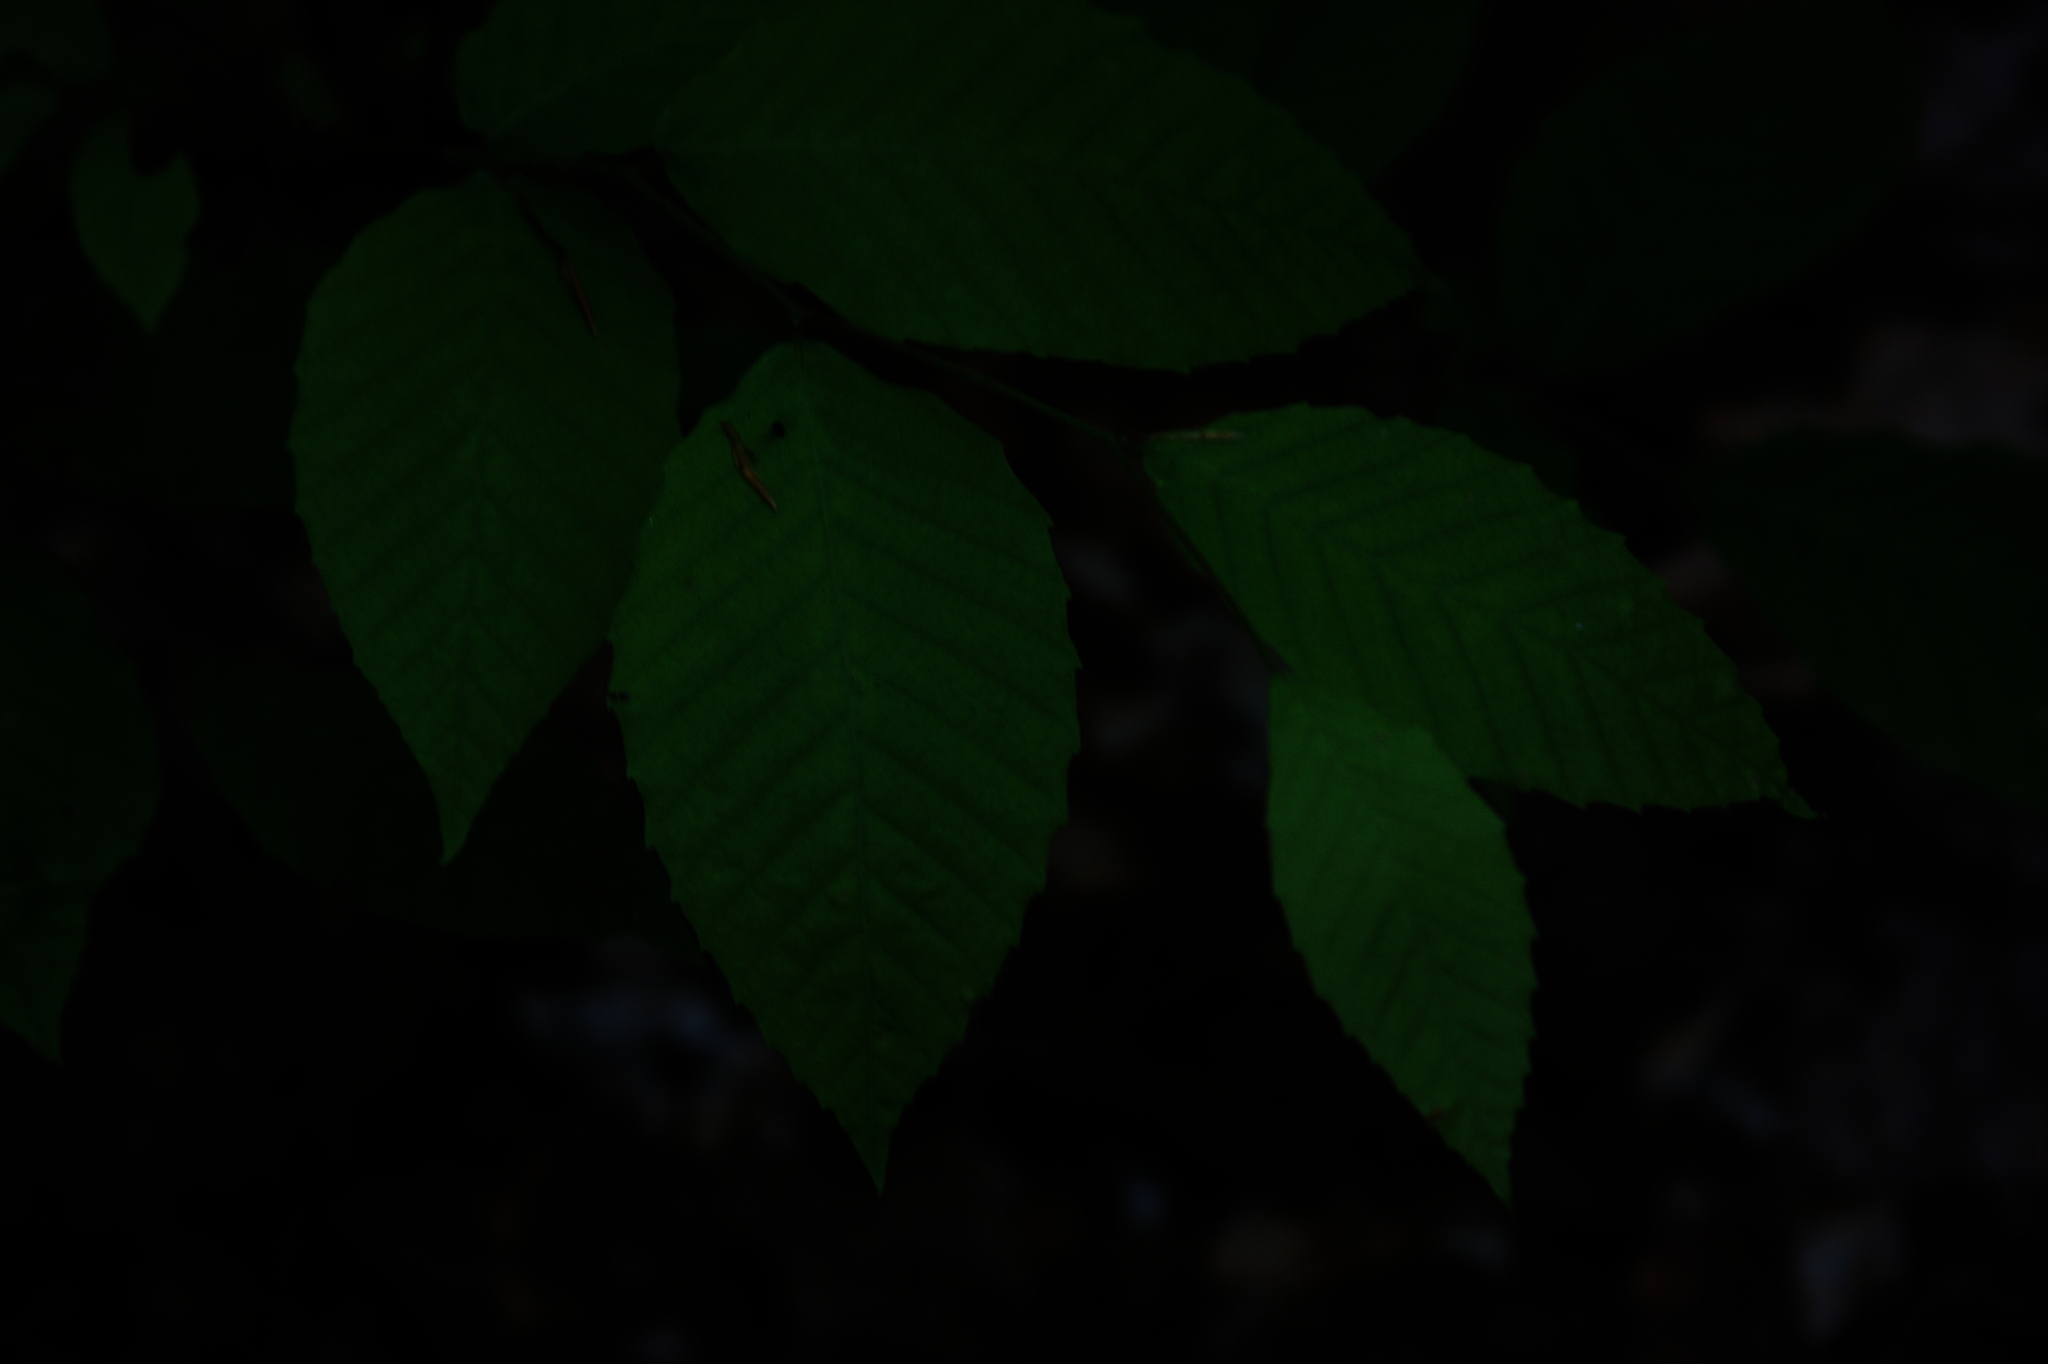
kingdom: Plantae
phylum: Tracheophyta
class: Magnoliopsida
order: Fagales
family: Fagaceae
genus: Fagus
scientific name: Fagus grandifolia
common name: American beech
